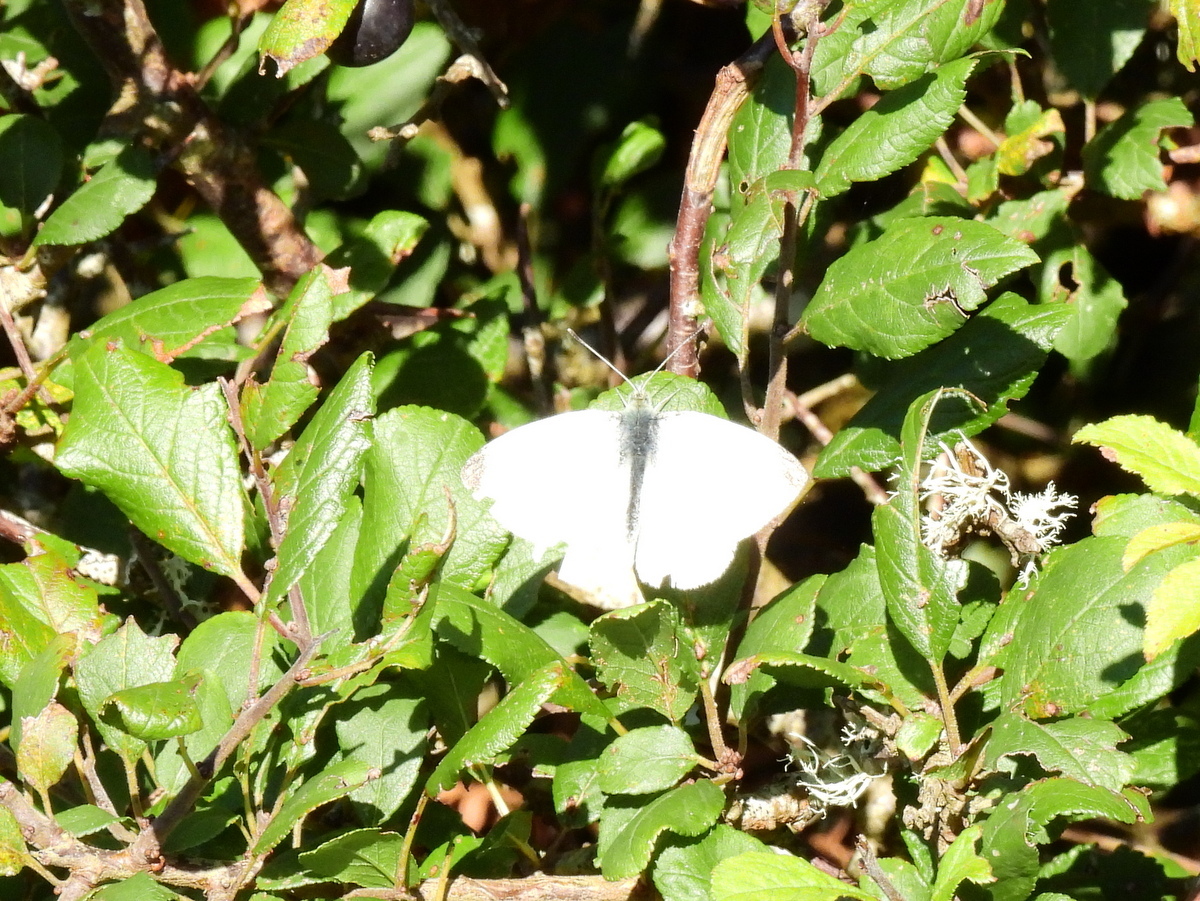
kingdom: Animalia
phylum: Arthropoda
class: Insecta
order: Lepidoptera
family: Pieridae
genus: Pieris
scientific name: Pieris rapae
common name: Small white
